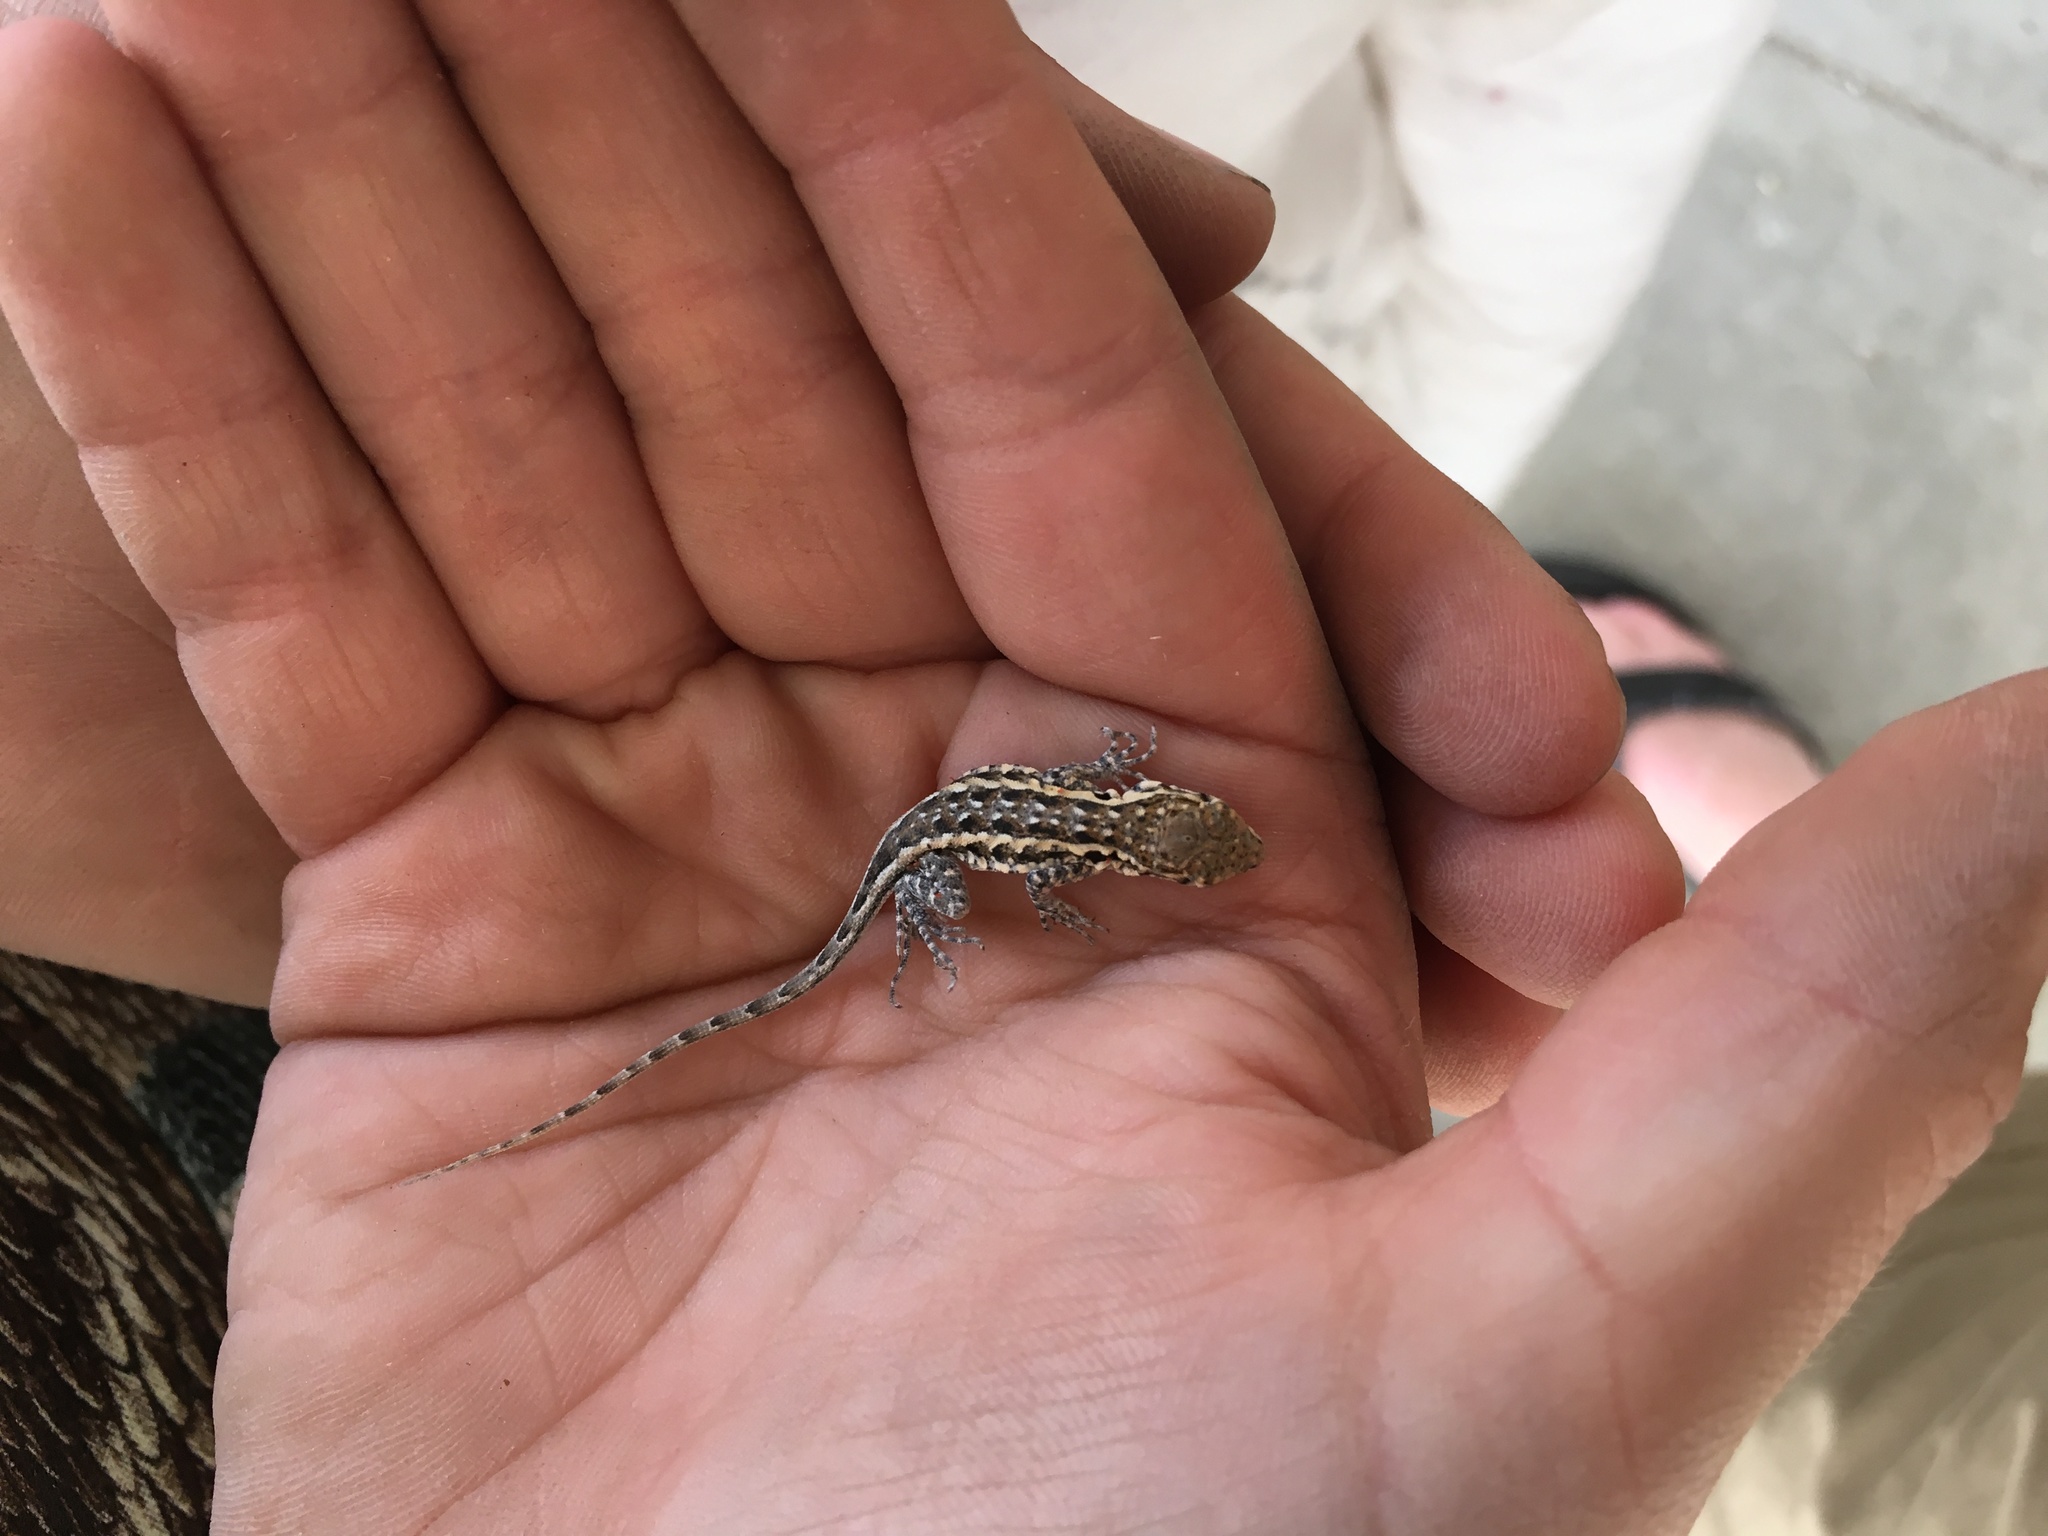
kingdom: Animalia
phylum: Chordata
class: Squamata
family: Phrynosomatidae
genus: Uta
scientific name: Uta stansburiana
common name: Side-blotched lizard
